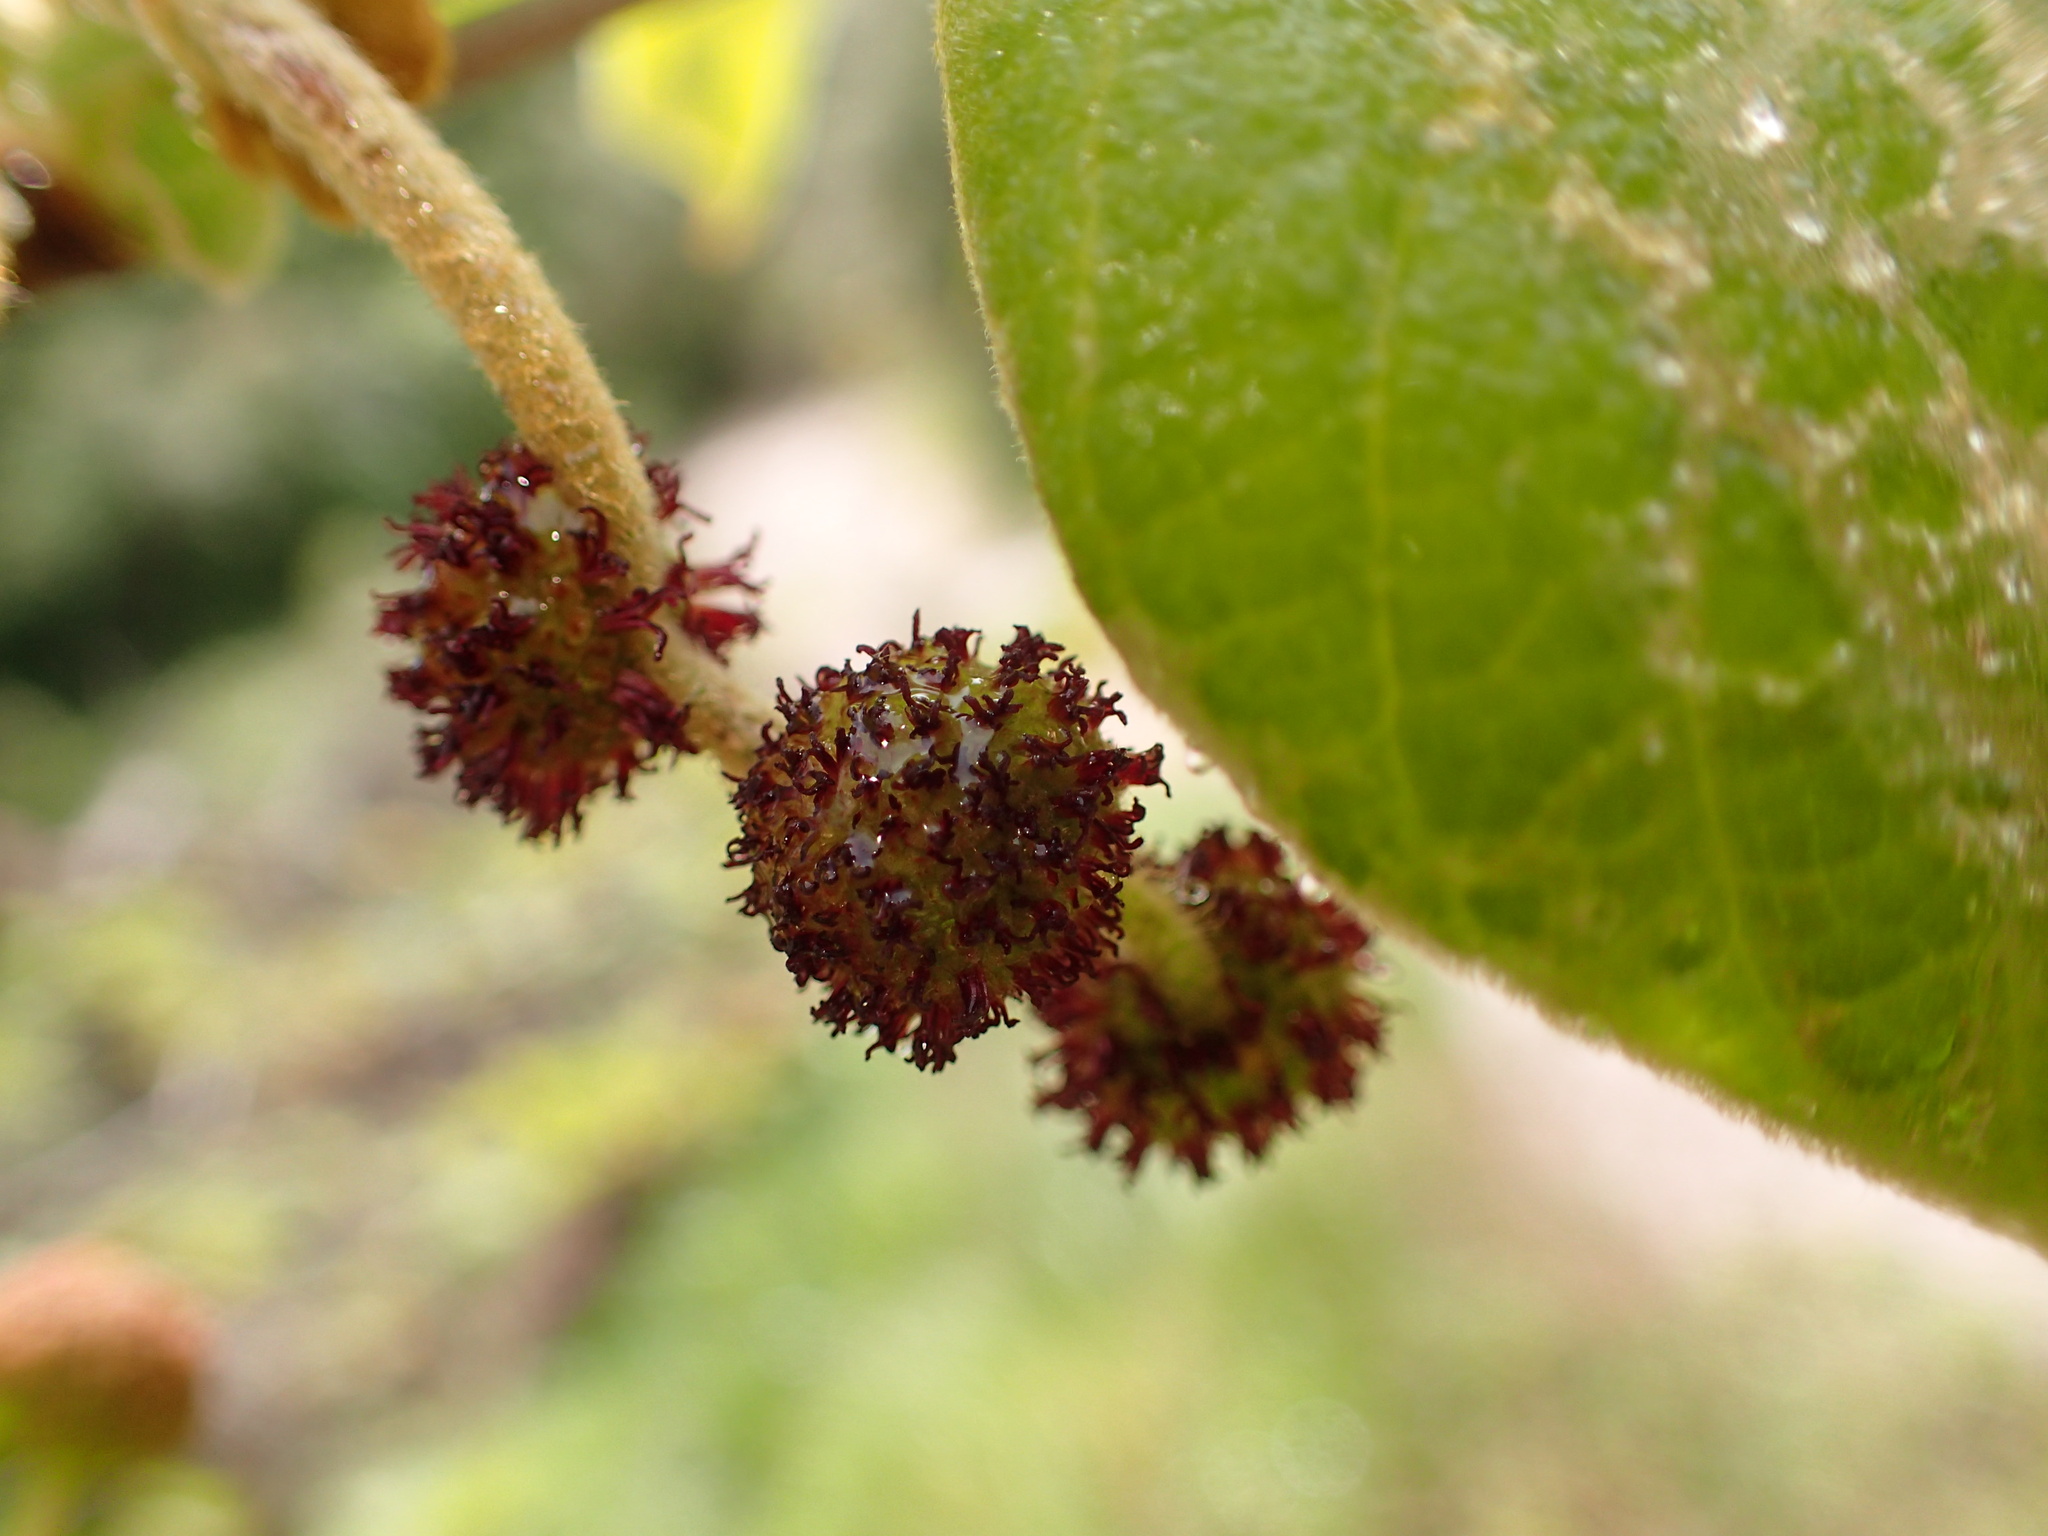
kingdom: Plantae
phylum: Tracheophyta
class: Magnoliopsida
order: Proteales
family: Platanaceae
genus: Platanus
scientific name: Platanus racemosa
